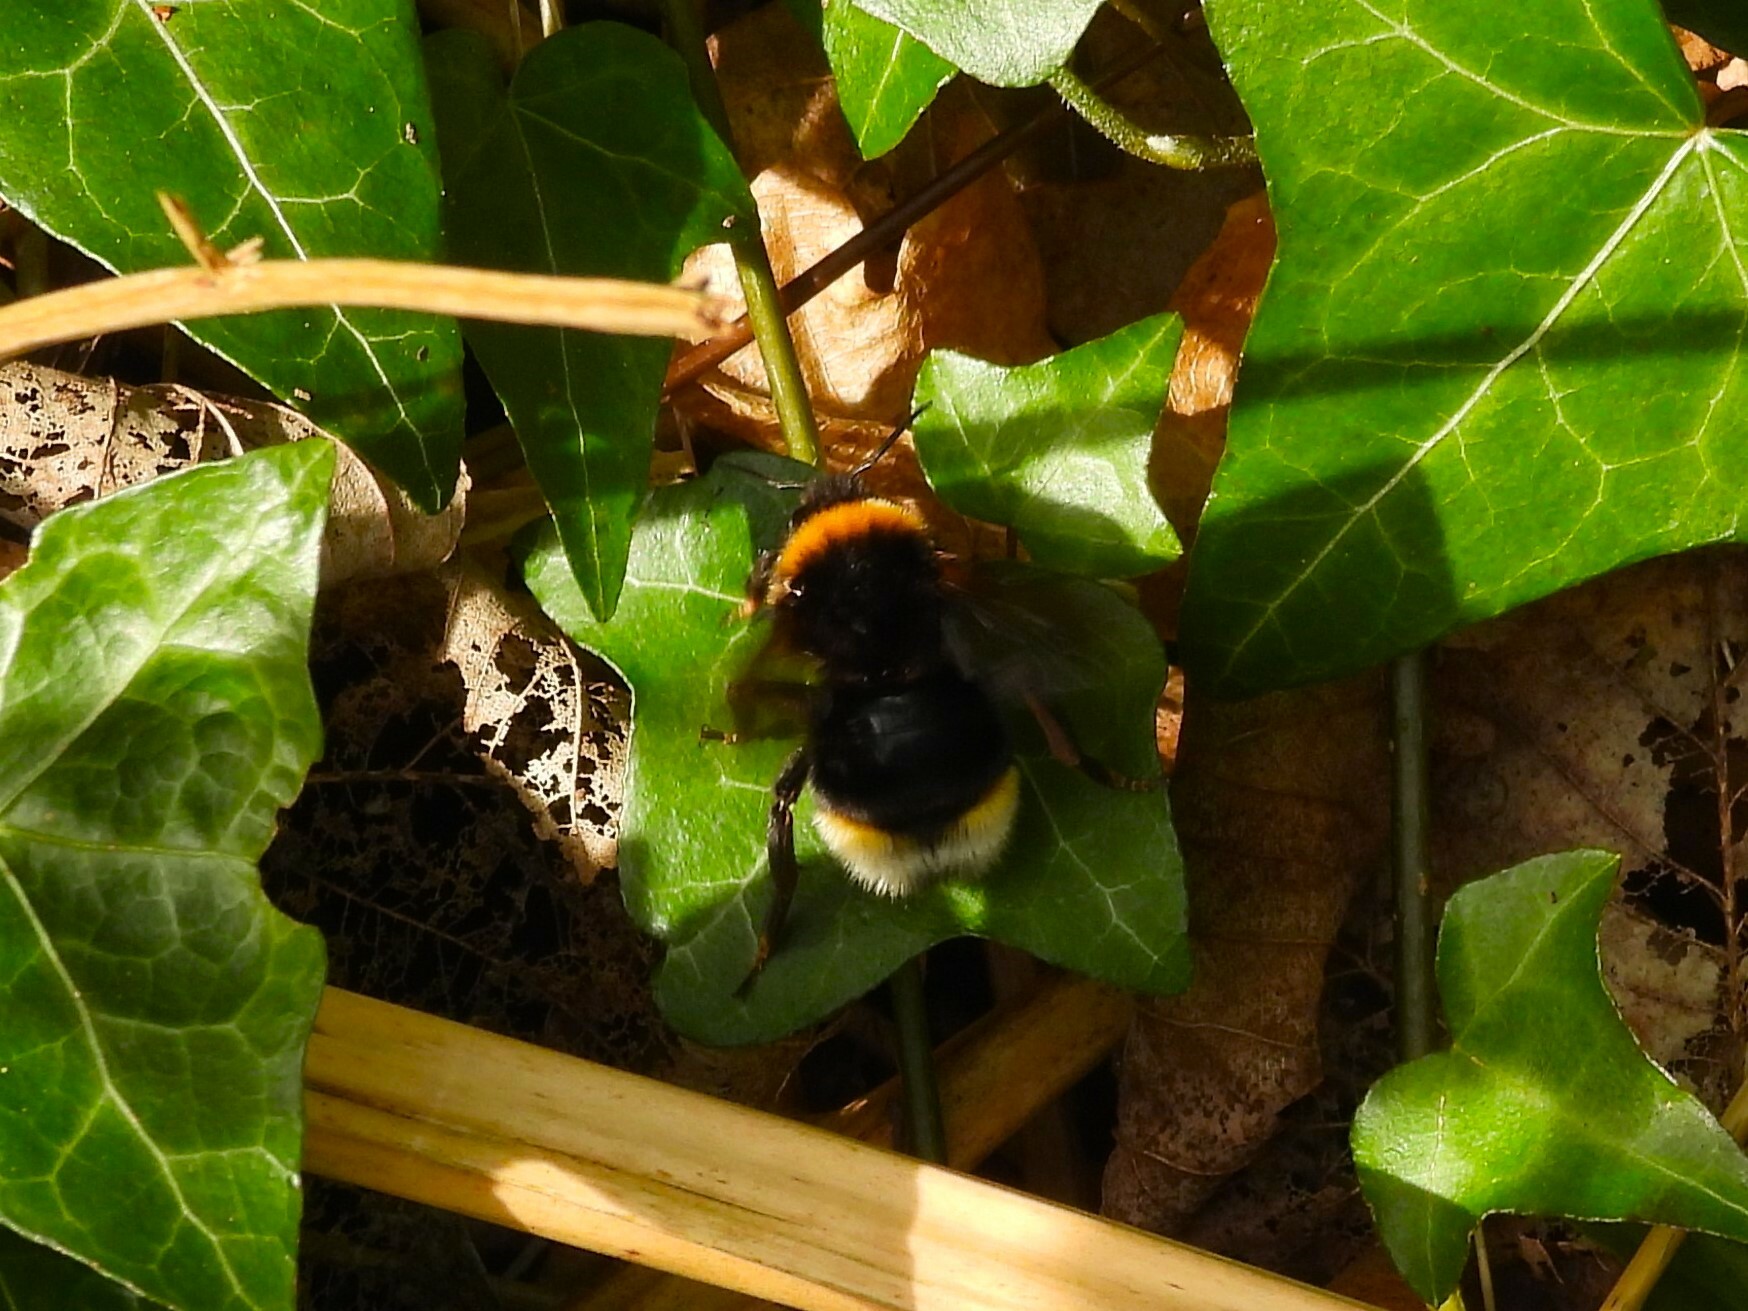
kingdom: Animalia
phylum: Arthropoda
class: Insecta
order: Hymenoptera
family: Apidae
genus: Bombus
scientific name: Bombus vestalis
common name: Vestal cuckoo bee
